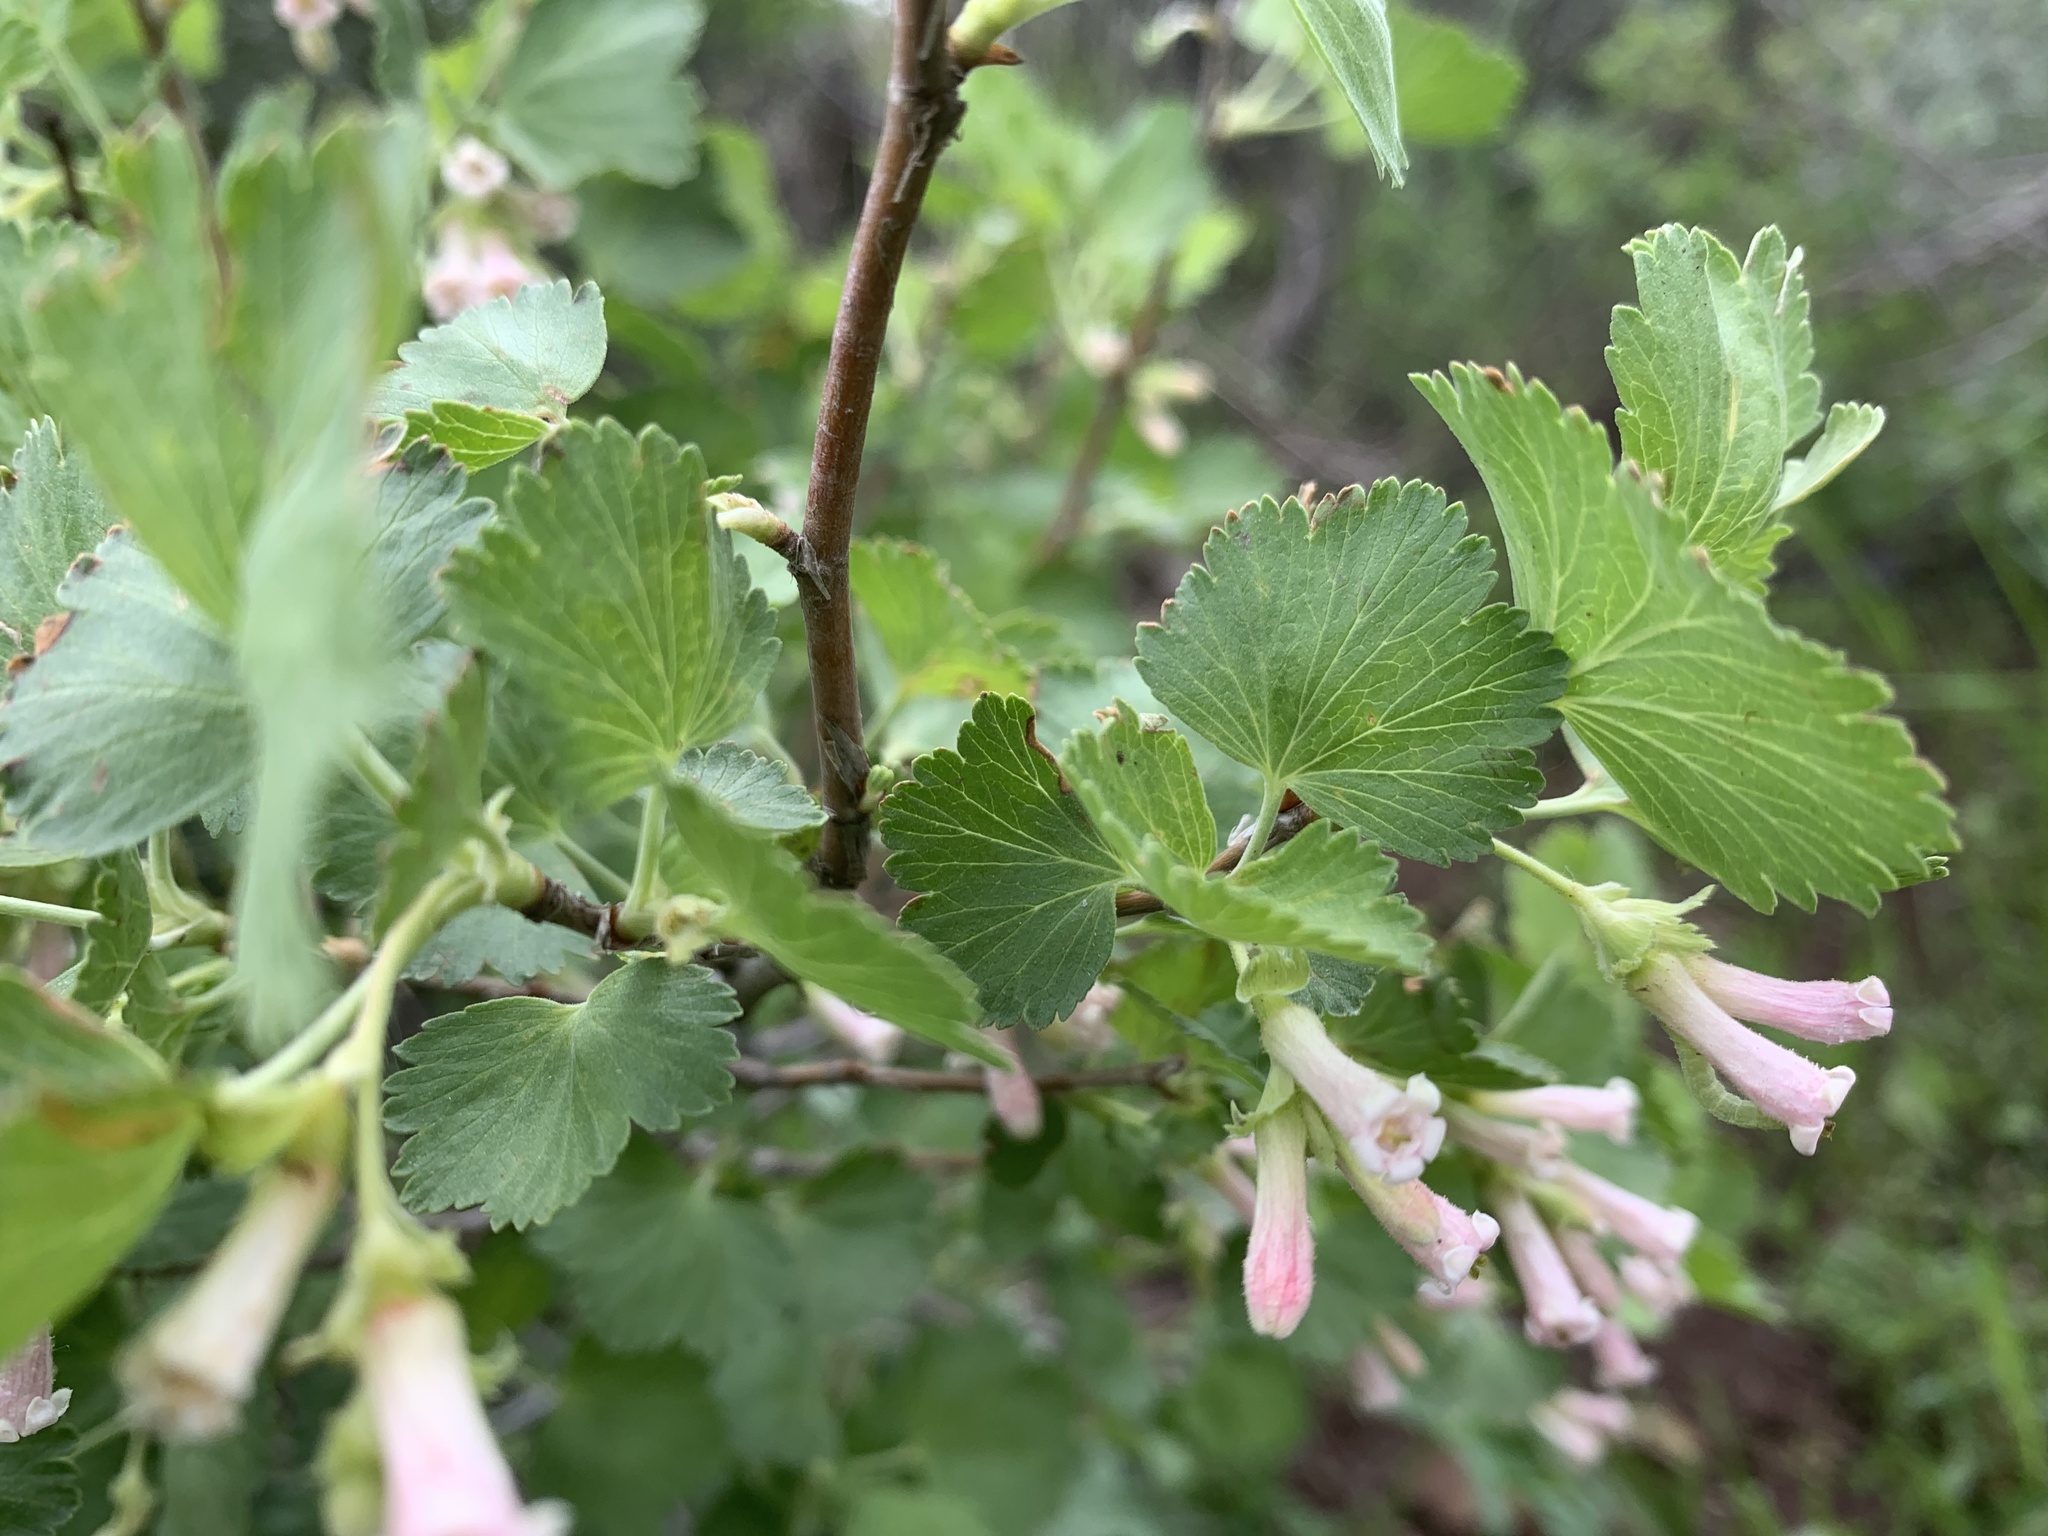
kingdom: Plantae
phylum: Tracheophyta
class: Magnoliopsida
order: Saxifragales
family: Grossulariaceae
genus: Ribes
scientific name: Ribes cereum
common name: Wax currant
